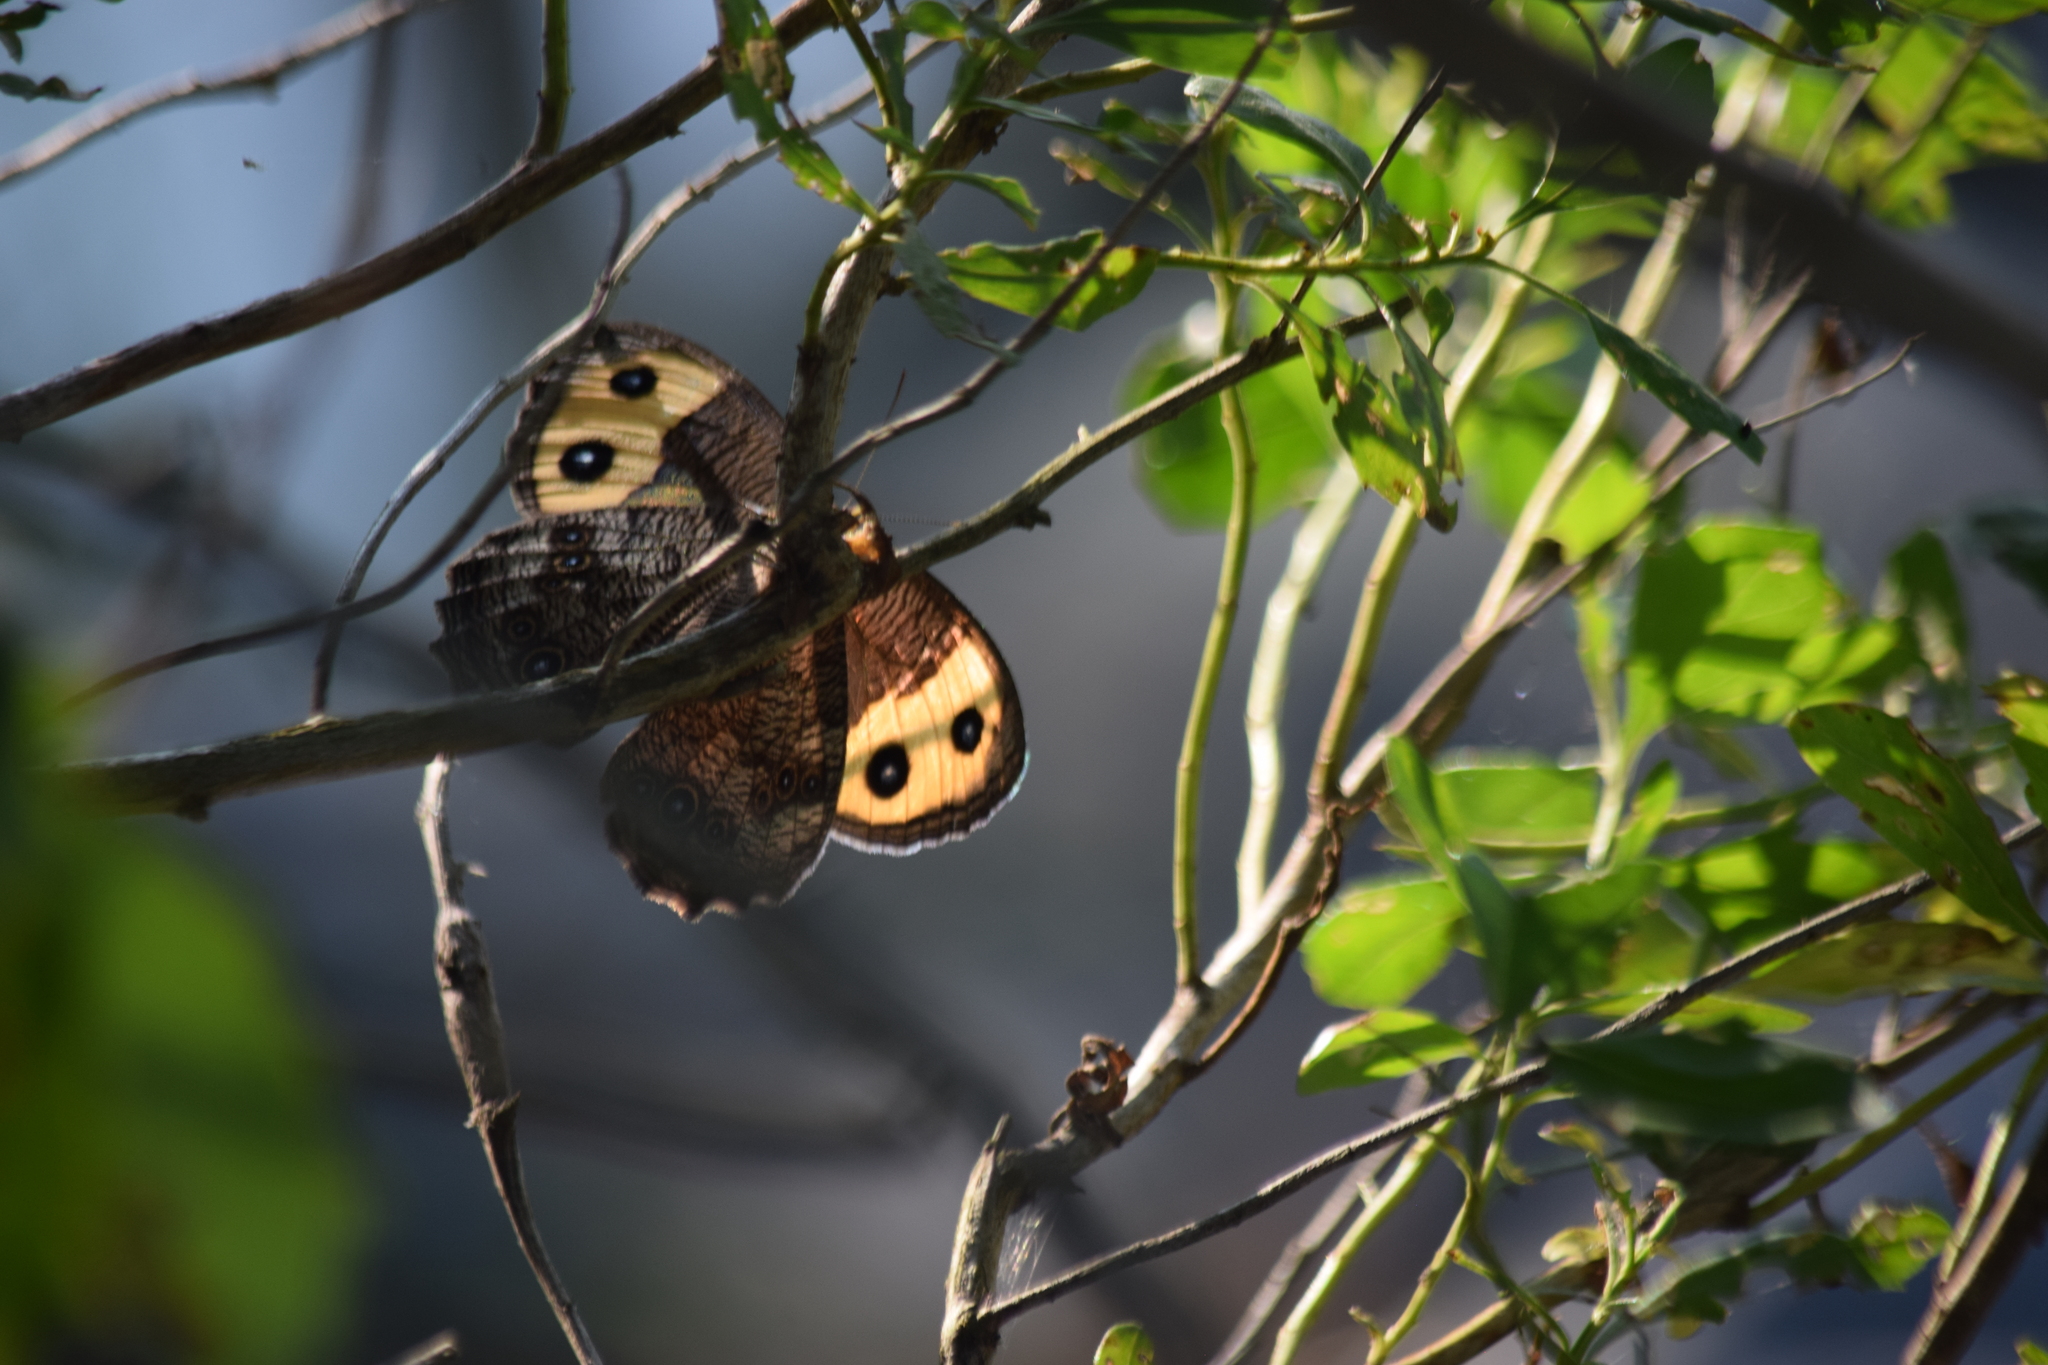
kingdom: Animalia
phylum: Arthropoda
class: Insecta
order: Lepidoptera
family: Nymphalidae
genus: Cercyonis
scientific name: Cercyonis pegala
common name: Common wood-nymph
